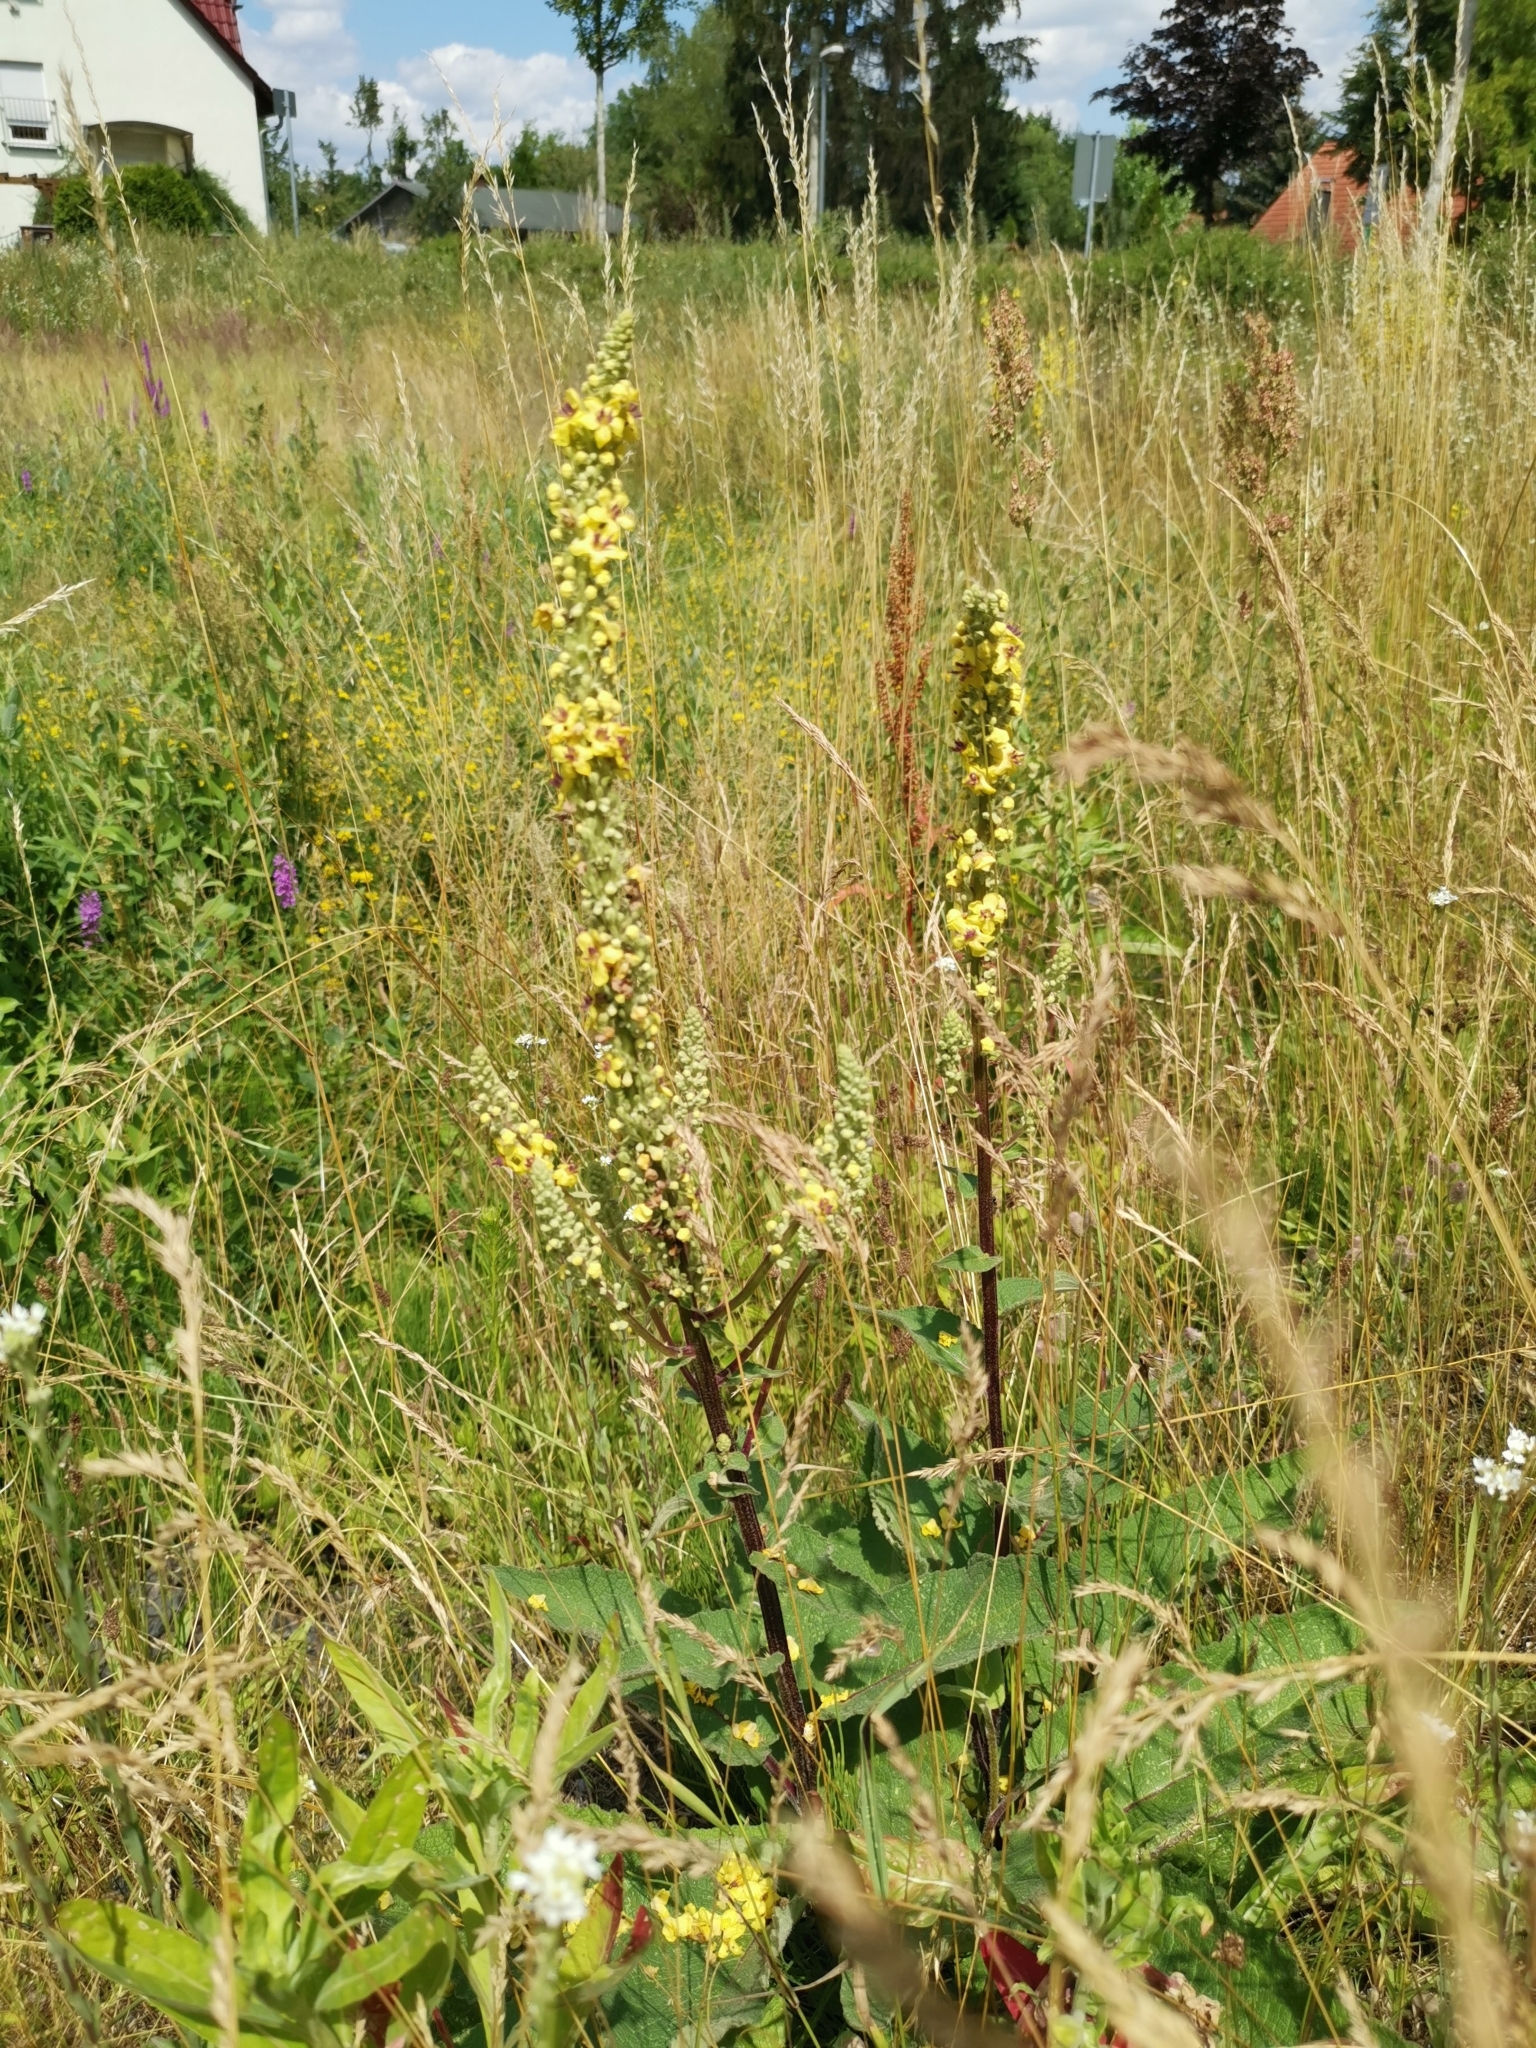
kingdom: Plantae
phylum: Tracheophyta
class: Magnoliopsida
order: Lamiales
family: Scrophulariaceae
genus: Verbascum
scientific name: Verbascum nigrum
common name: Dark mullein
